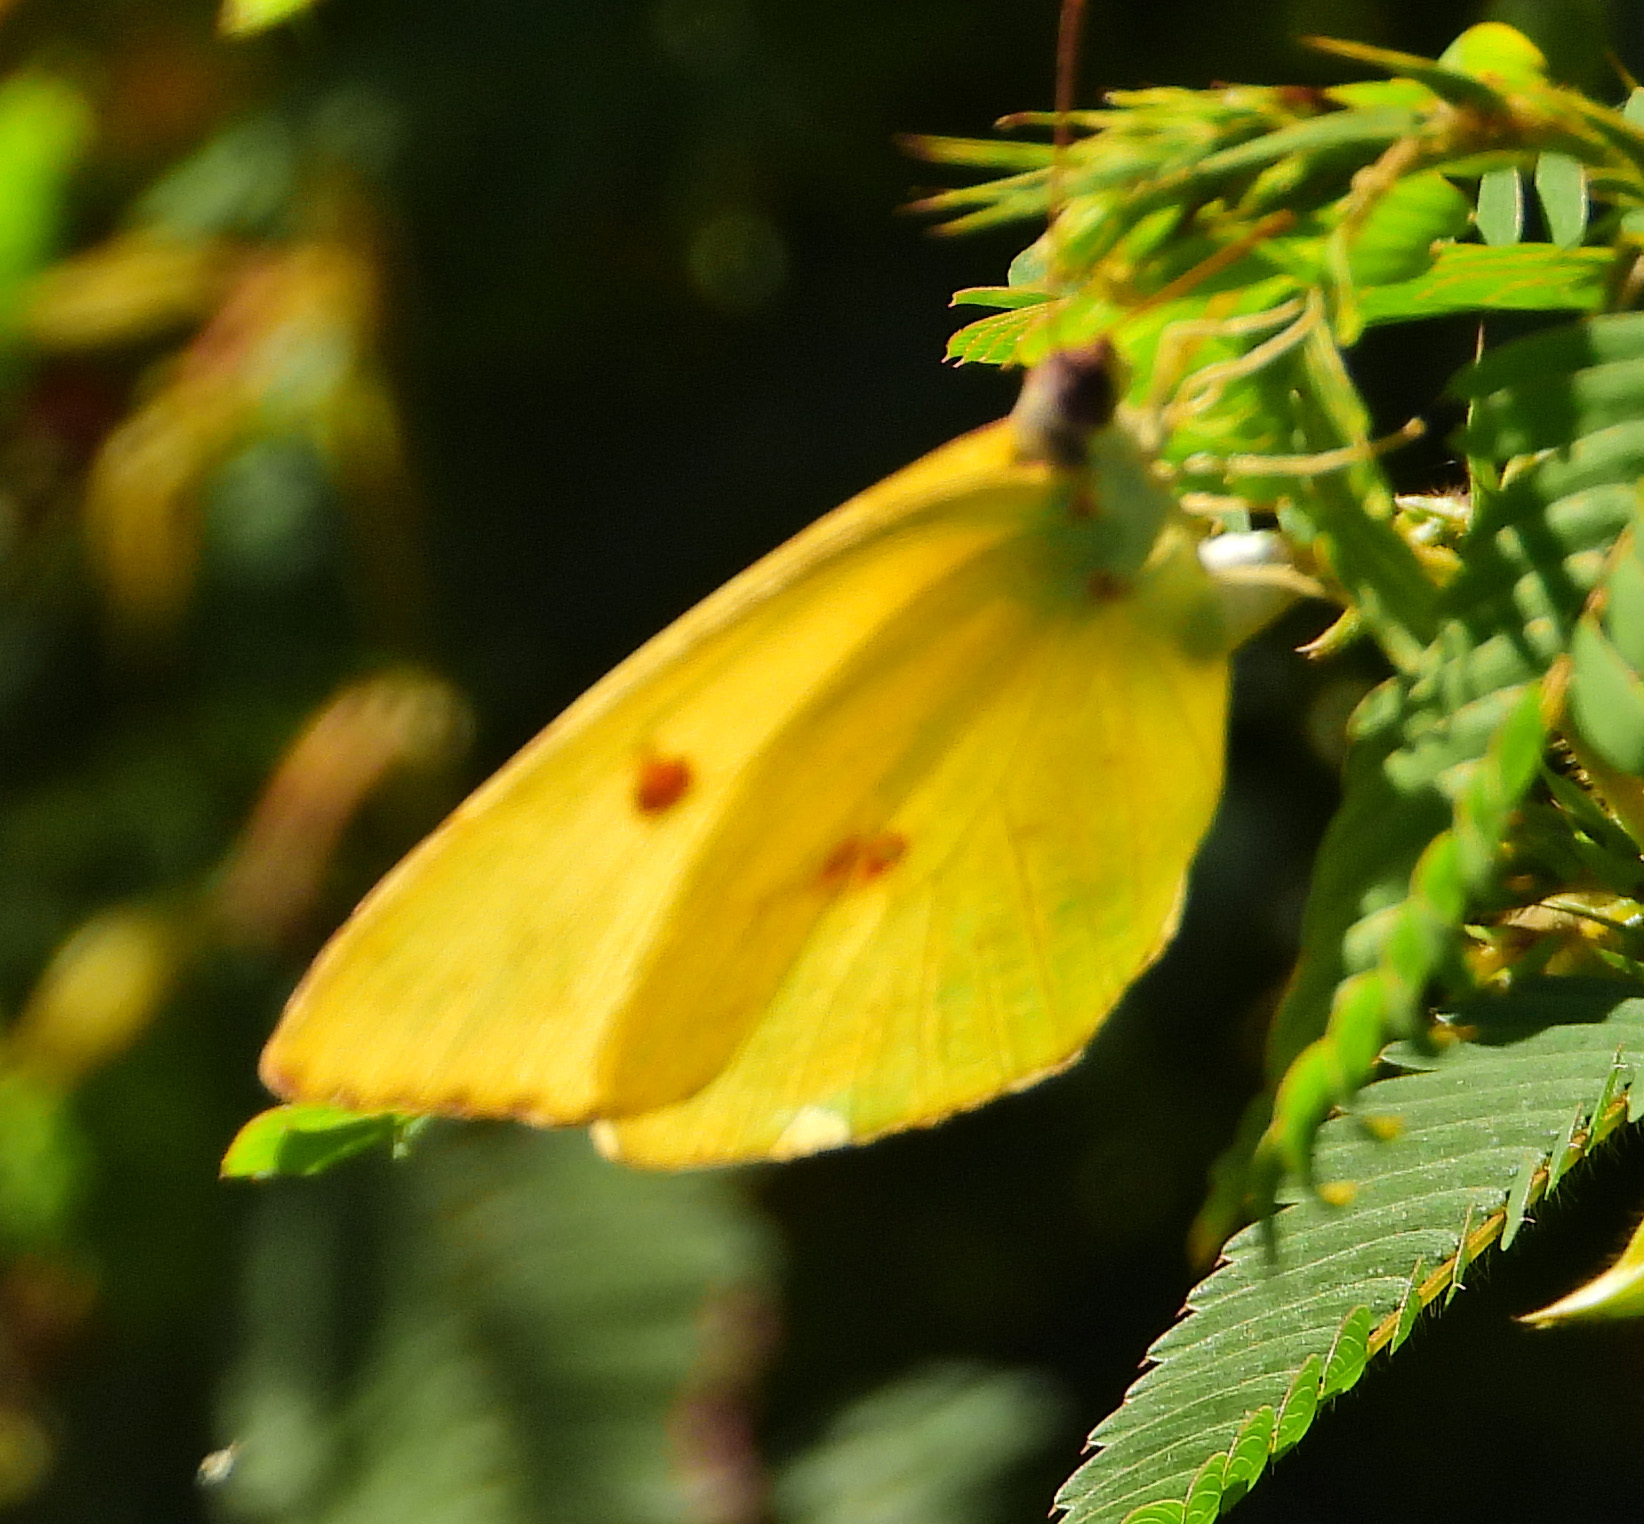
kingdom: Animalia
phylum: Arthropoda
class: Insecta
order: Lepidoptera
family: Pieridae
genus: Phoebis
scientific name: Phoebis sennae
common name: Cloudless sulphur
